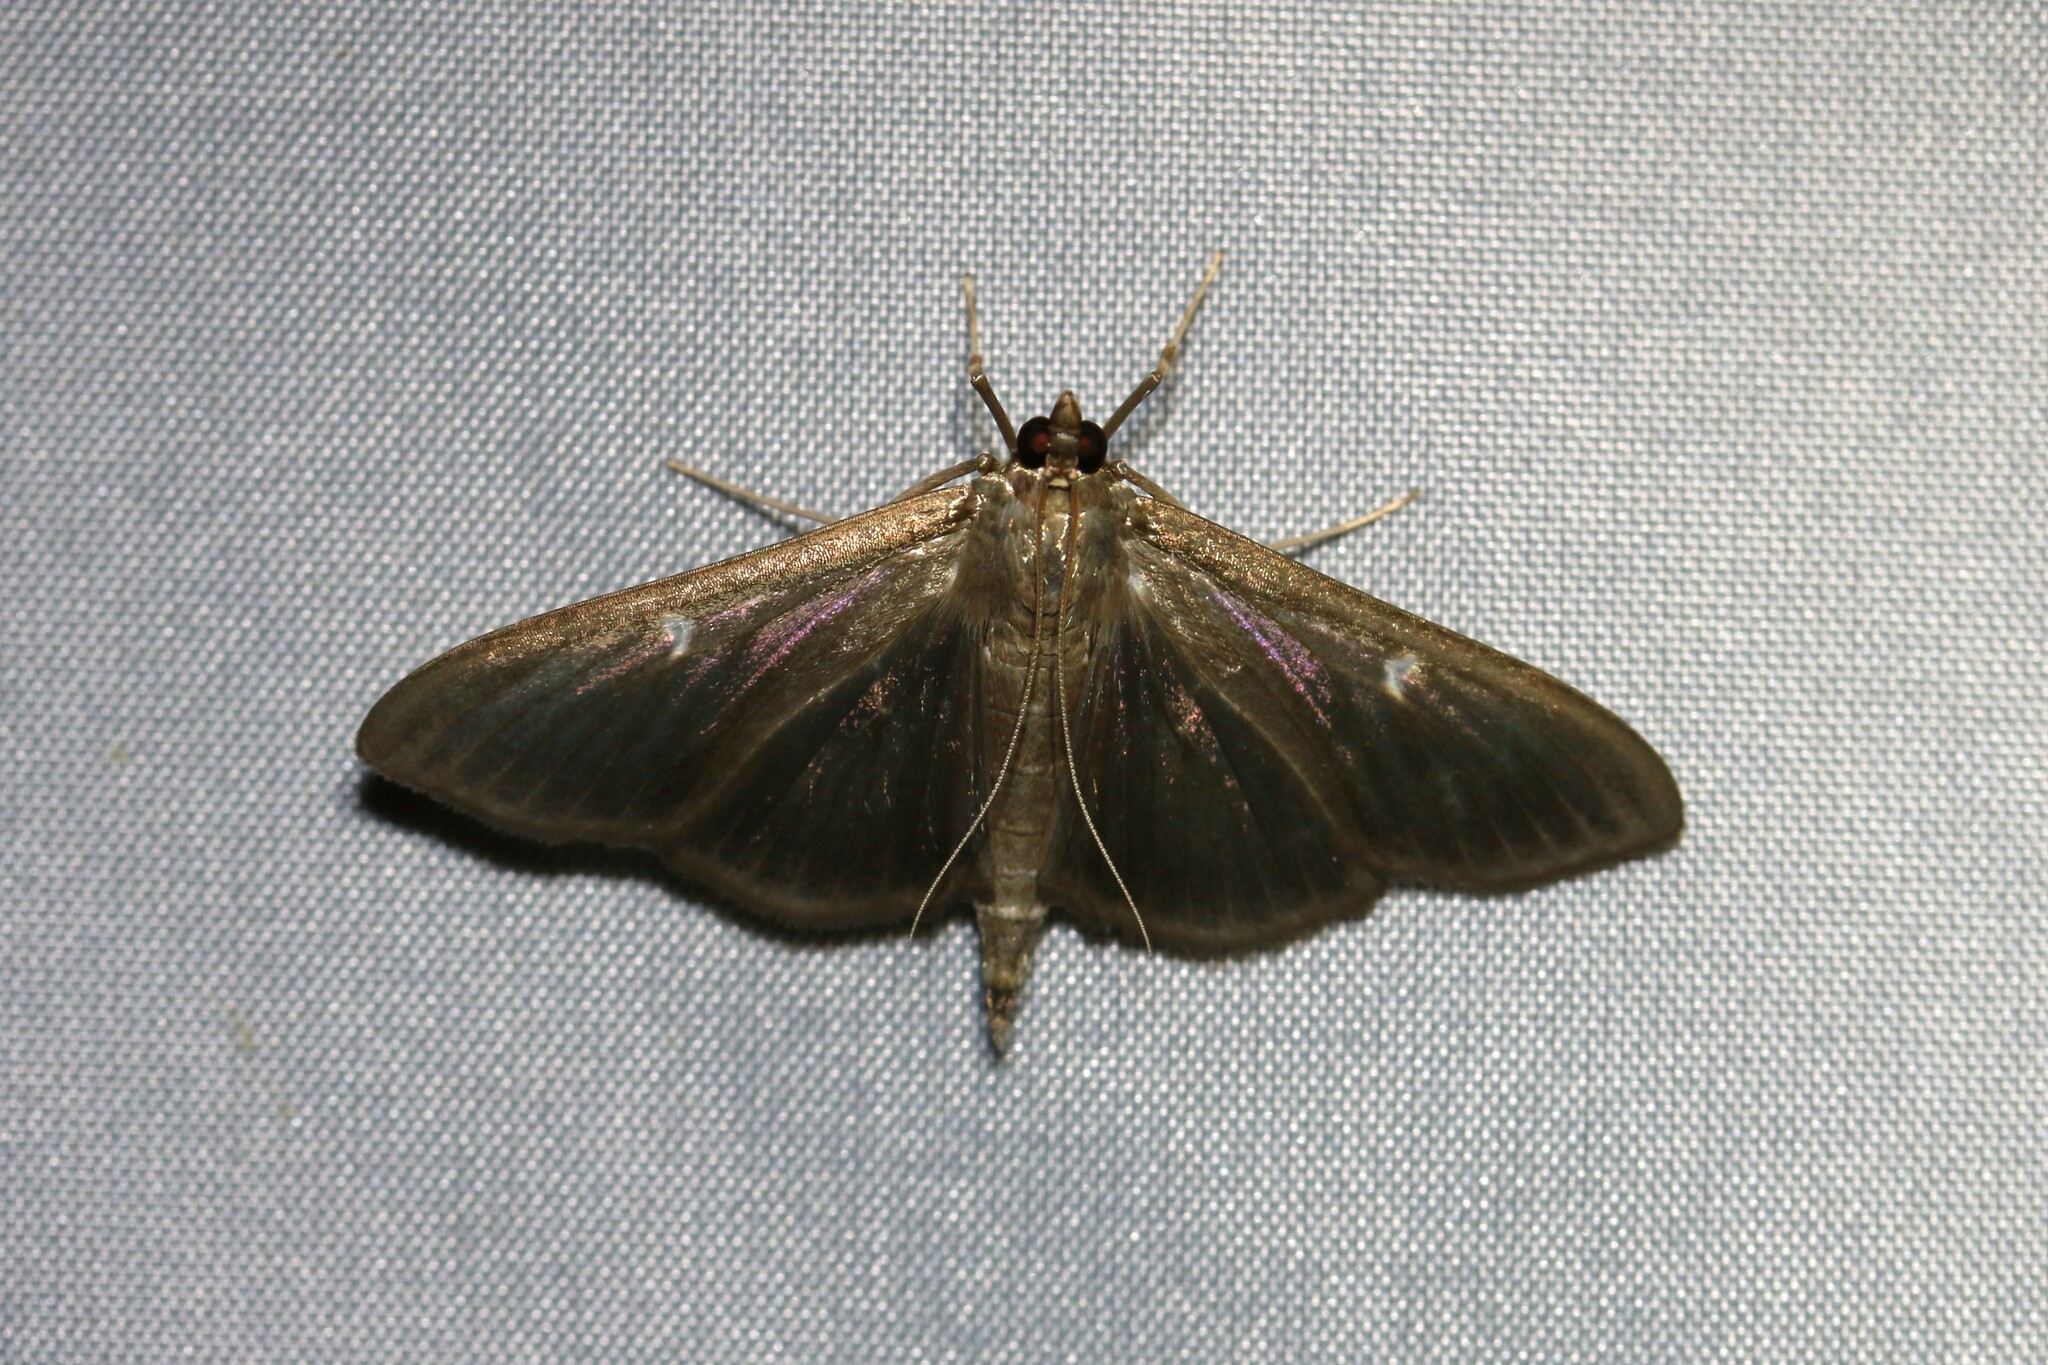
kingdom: Animalia
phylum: Arthropoda
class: Insecta
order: Lepidoptera
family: Crambidae
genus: Cydalima
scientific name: Cydalima perspectalis
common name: Box tree moth
